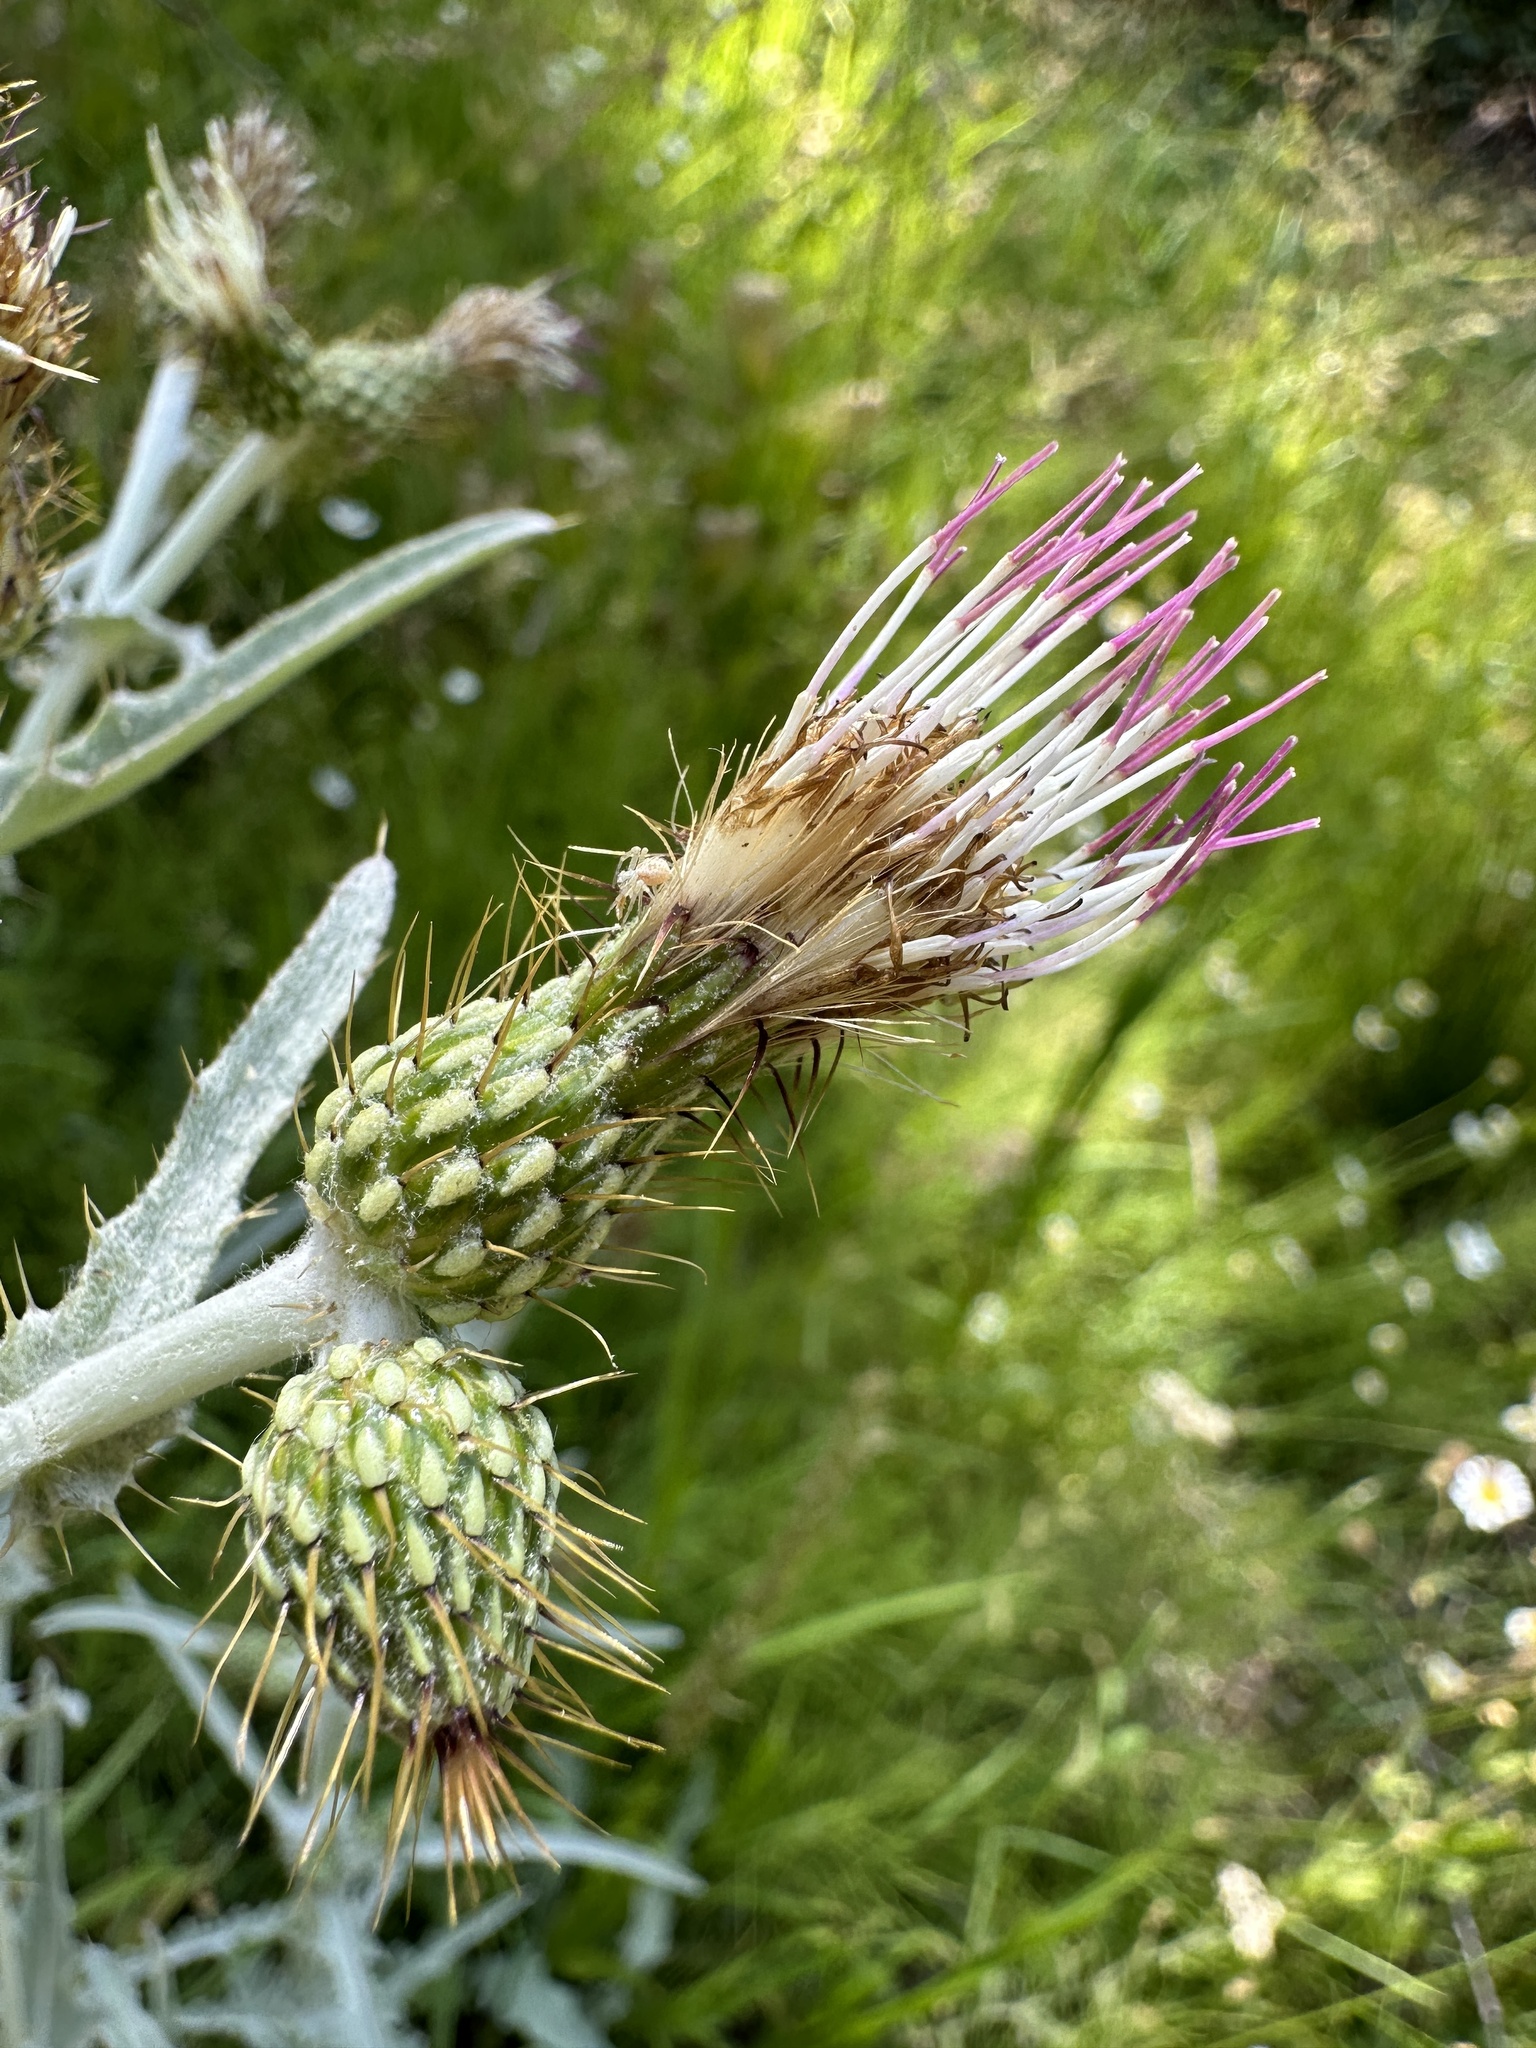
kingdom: Plantae
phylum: Tracheophyta
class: Magnoliopsida
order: Asterales
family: Asteraceae
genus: Cirsium
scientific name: Cirsium douglasii
